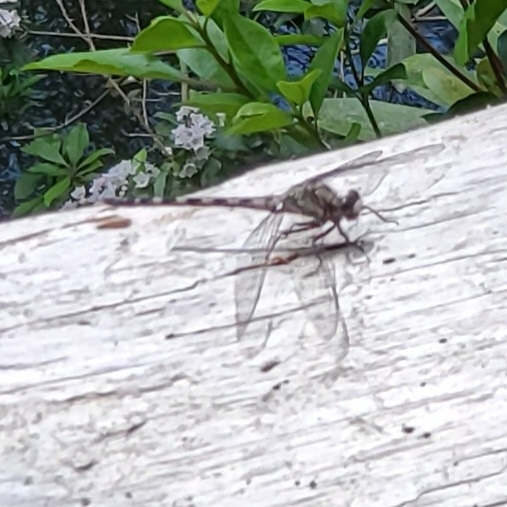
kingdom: Animalia
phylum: Arthropoda
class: Insecta
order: Odonata
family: Petaluridae
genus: Tachopteryx
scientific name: Tachopteryx thoreyi
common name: Gray petaltail
